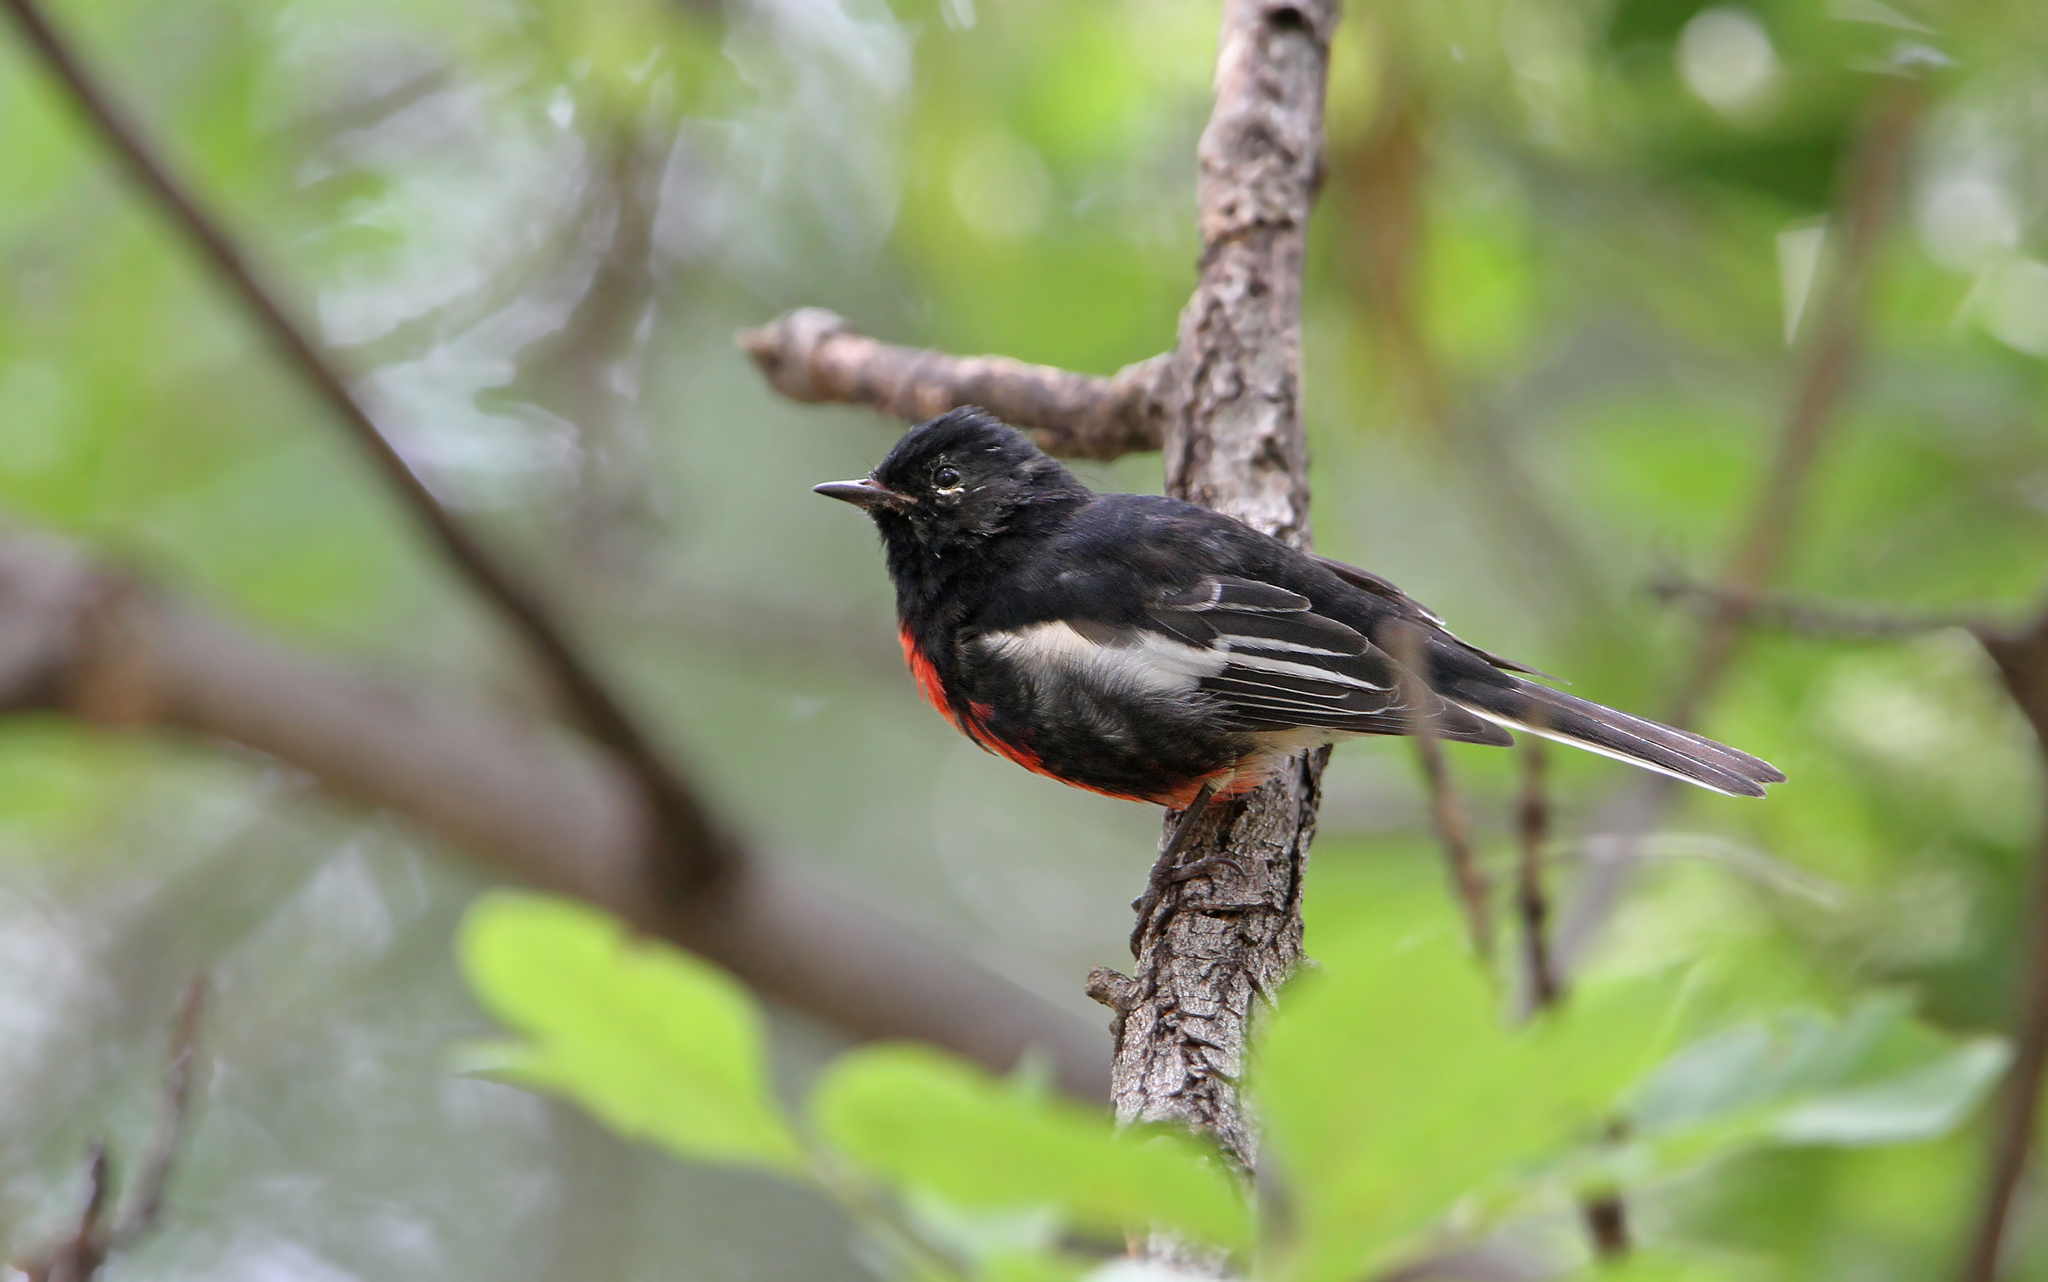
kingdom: Animalia
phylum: Chordata
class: Aves
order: Passeriformes
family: Parulidae
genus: Myioborus
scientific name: Myioborus pictus
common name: Painted whitestart
